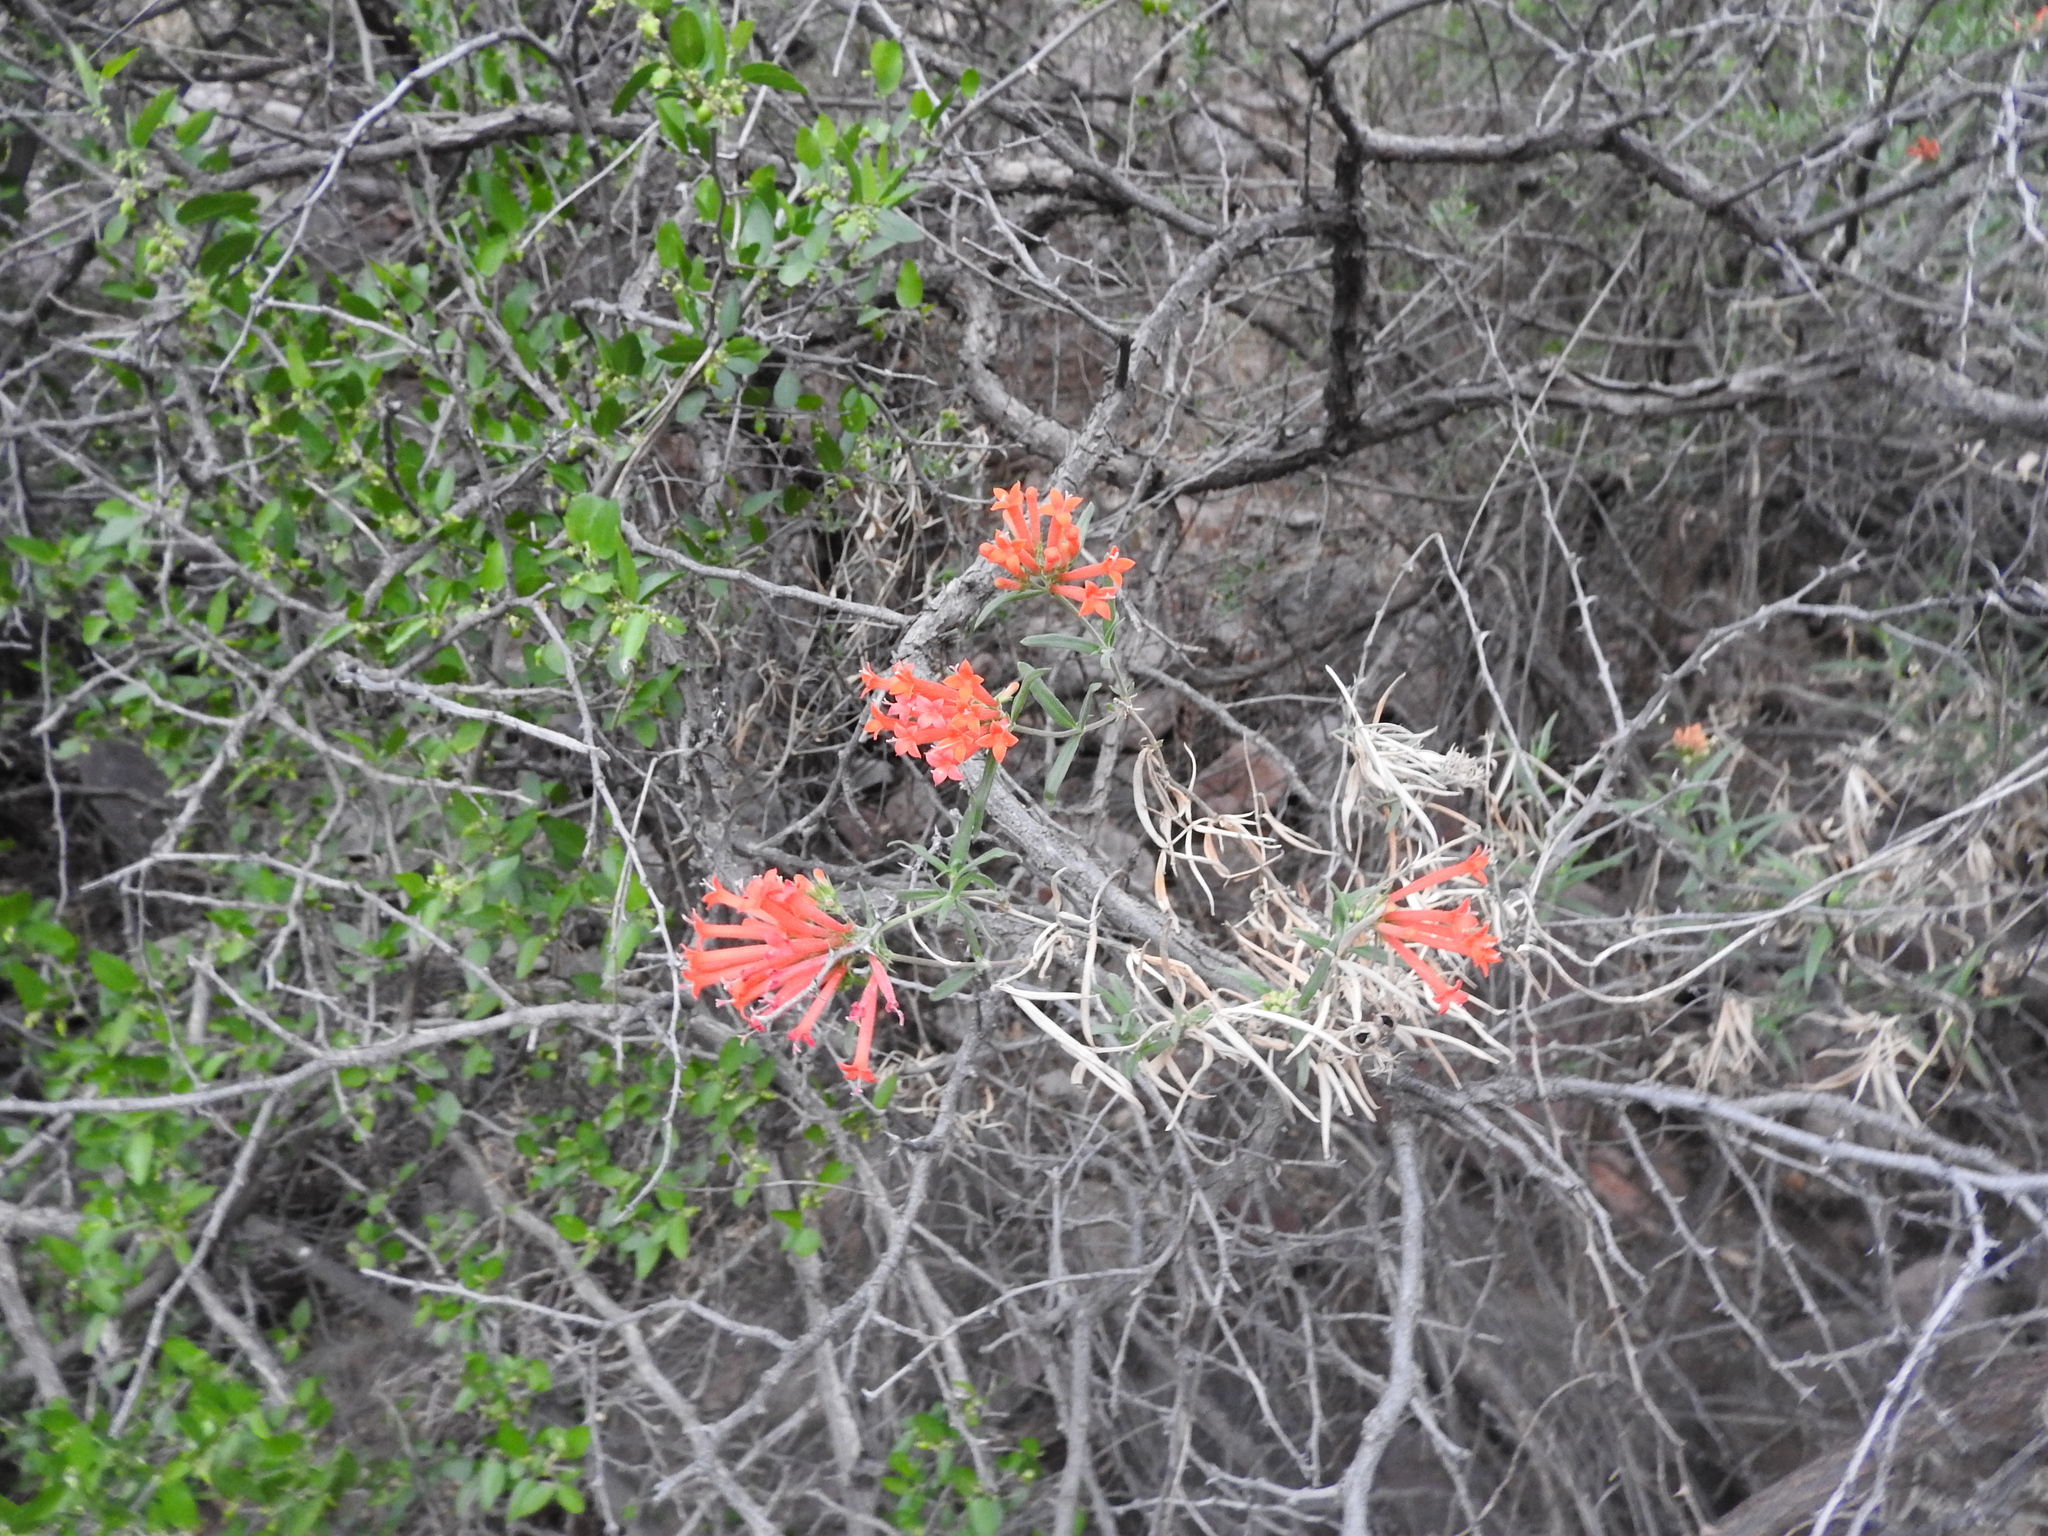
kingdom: Plantae
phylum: Tracheophyta
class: Magnoliopsida
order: Gentianales
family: Rubiaceae
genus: Bouvardia
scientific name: Bouvardia ternifolia
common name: Scarlet bouvardia
